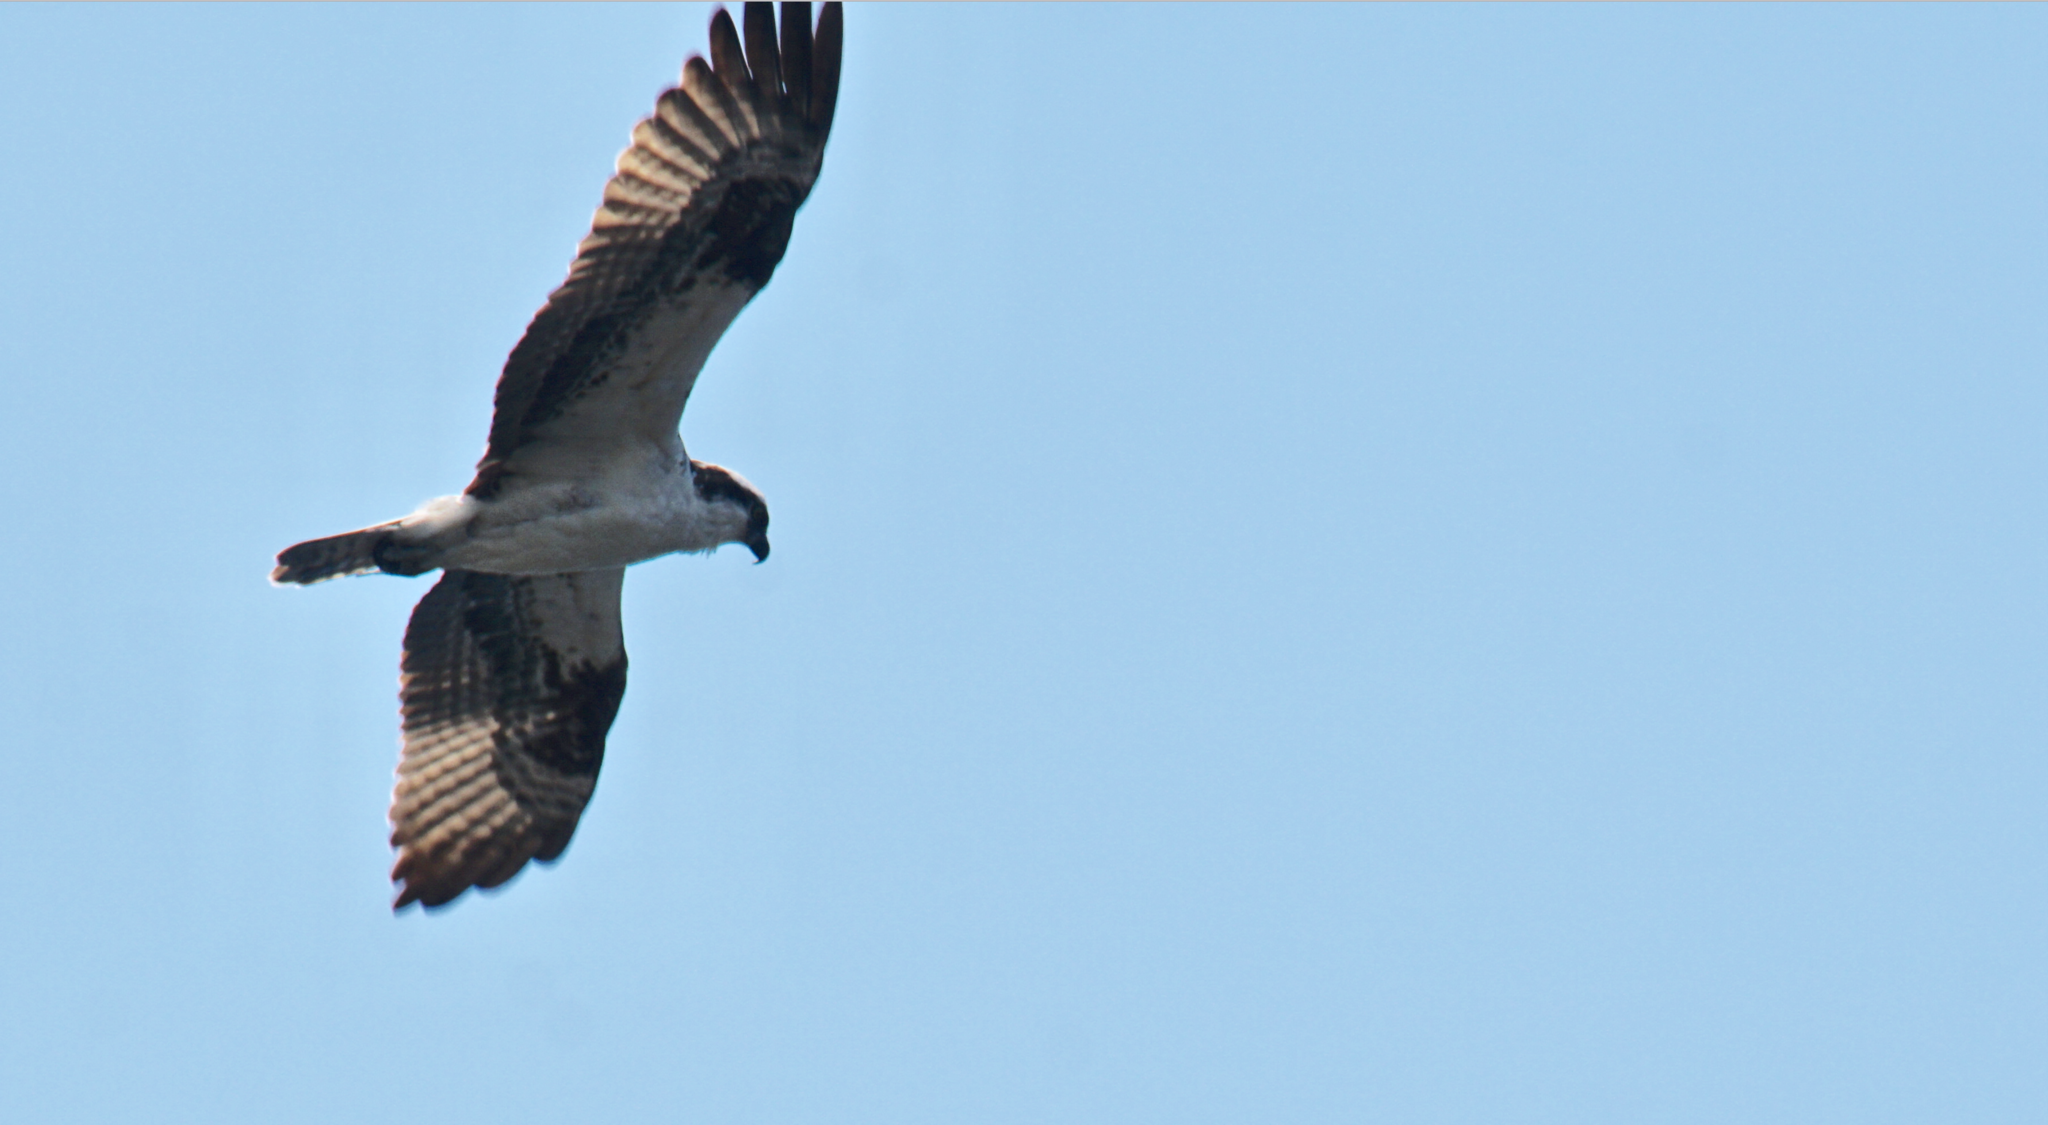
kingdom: Animalia
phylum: Chordata
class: Aves
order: Accipitriformes
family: Pandionidae
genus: Pandion
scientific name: Pandion haliaetus
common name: Osprey
